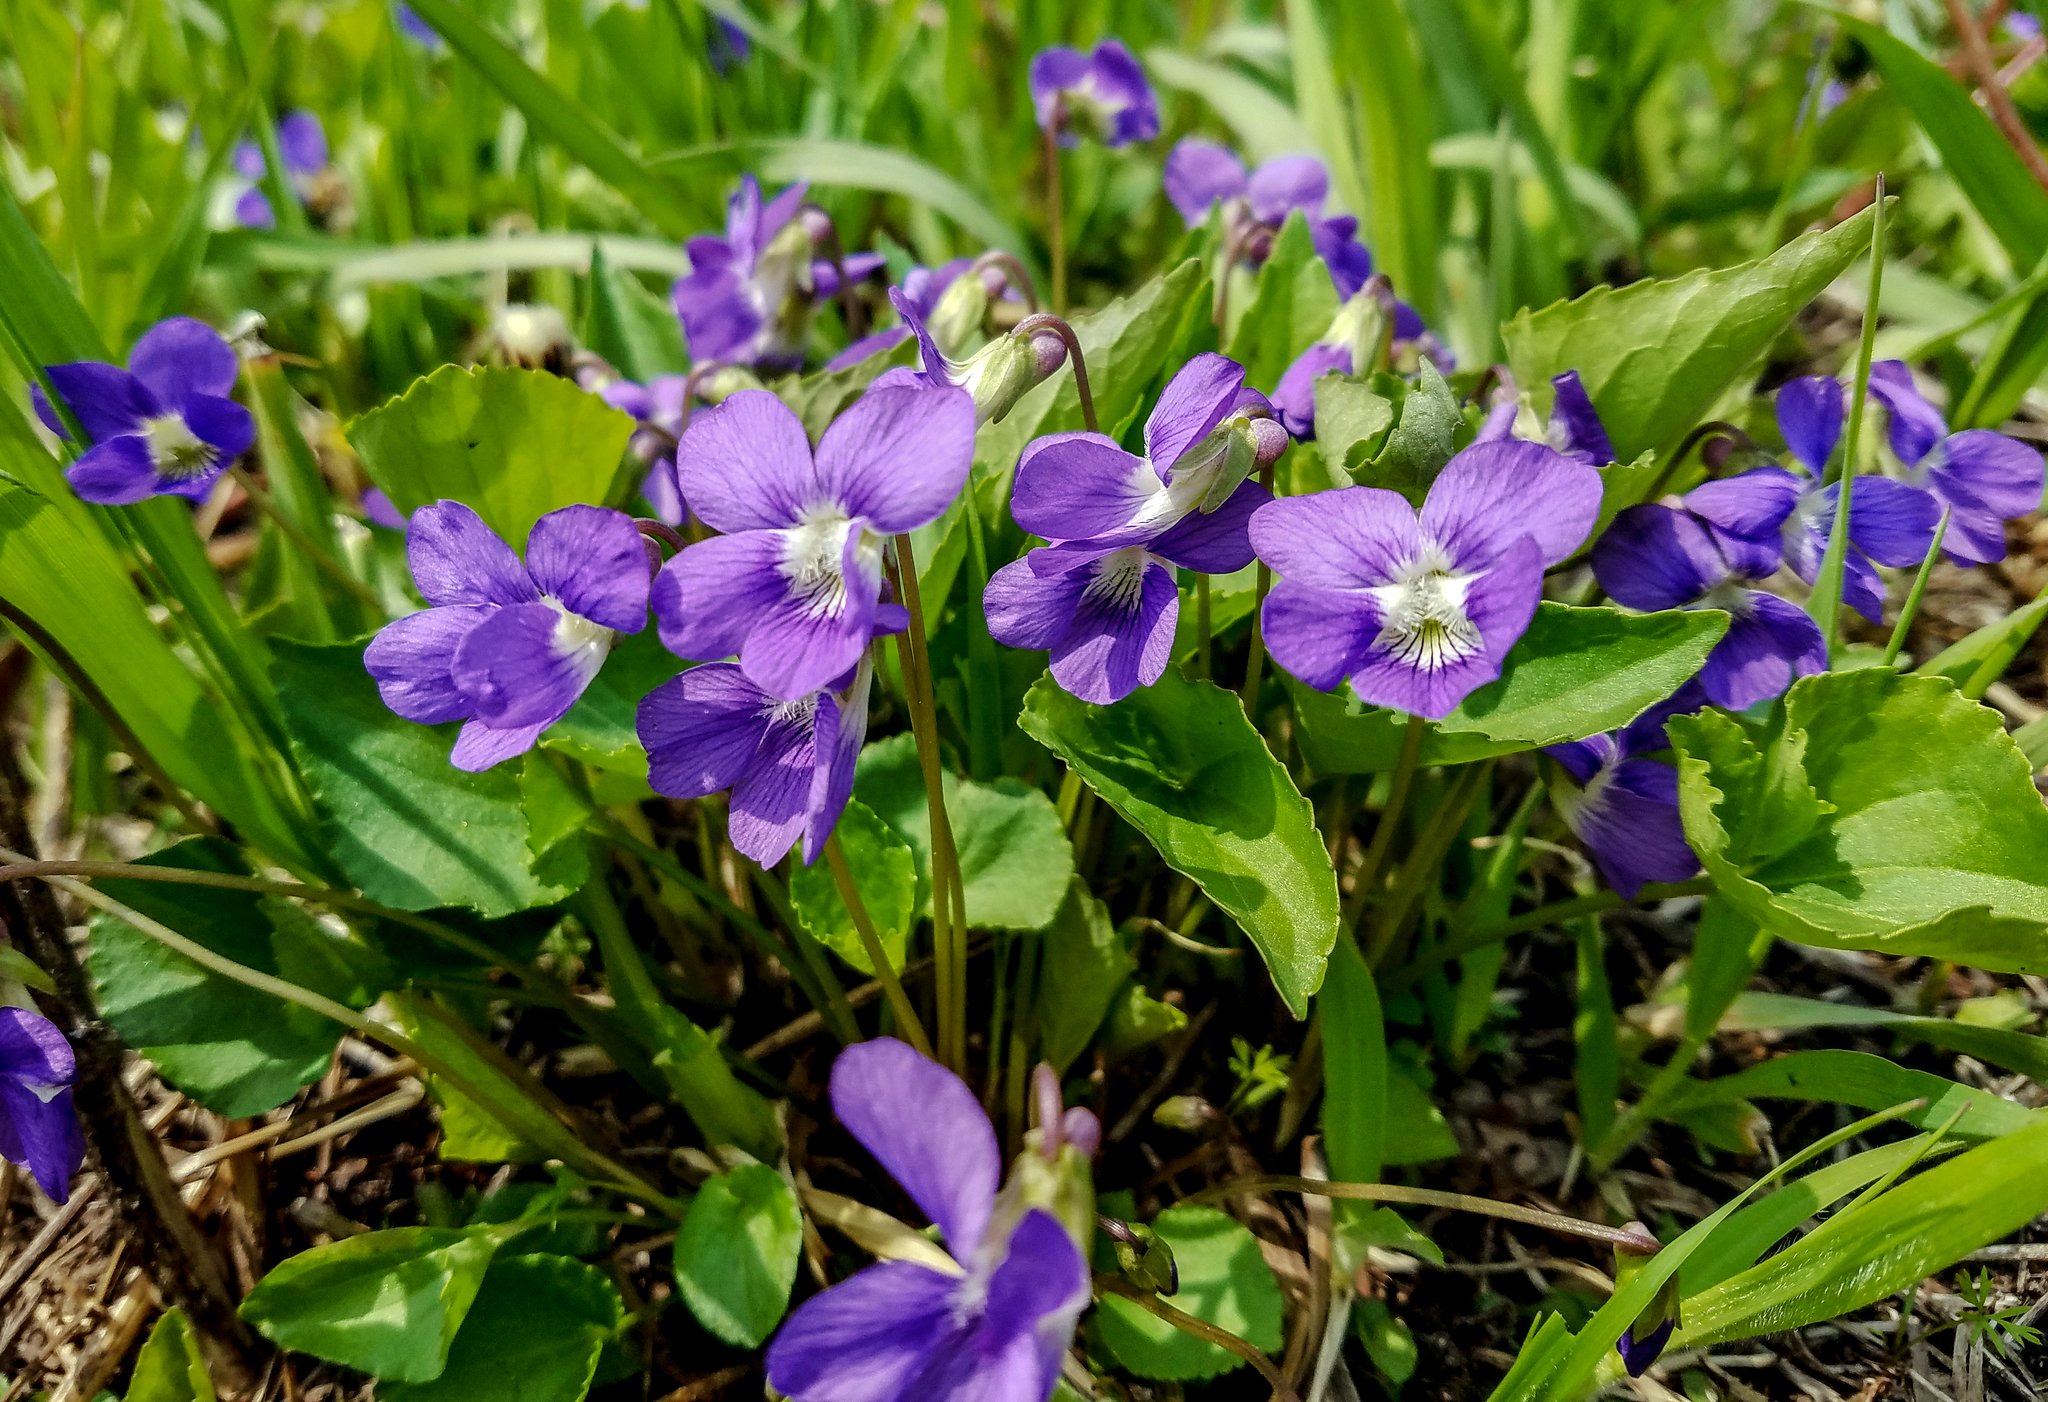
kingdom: Plantae
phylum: Tracheophyta
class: Magnoliopsida
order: Malpighiales
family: Violaceae
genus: Viola
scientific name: Viola cucullata
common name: Marsh blue violet
